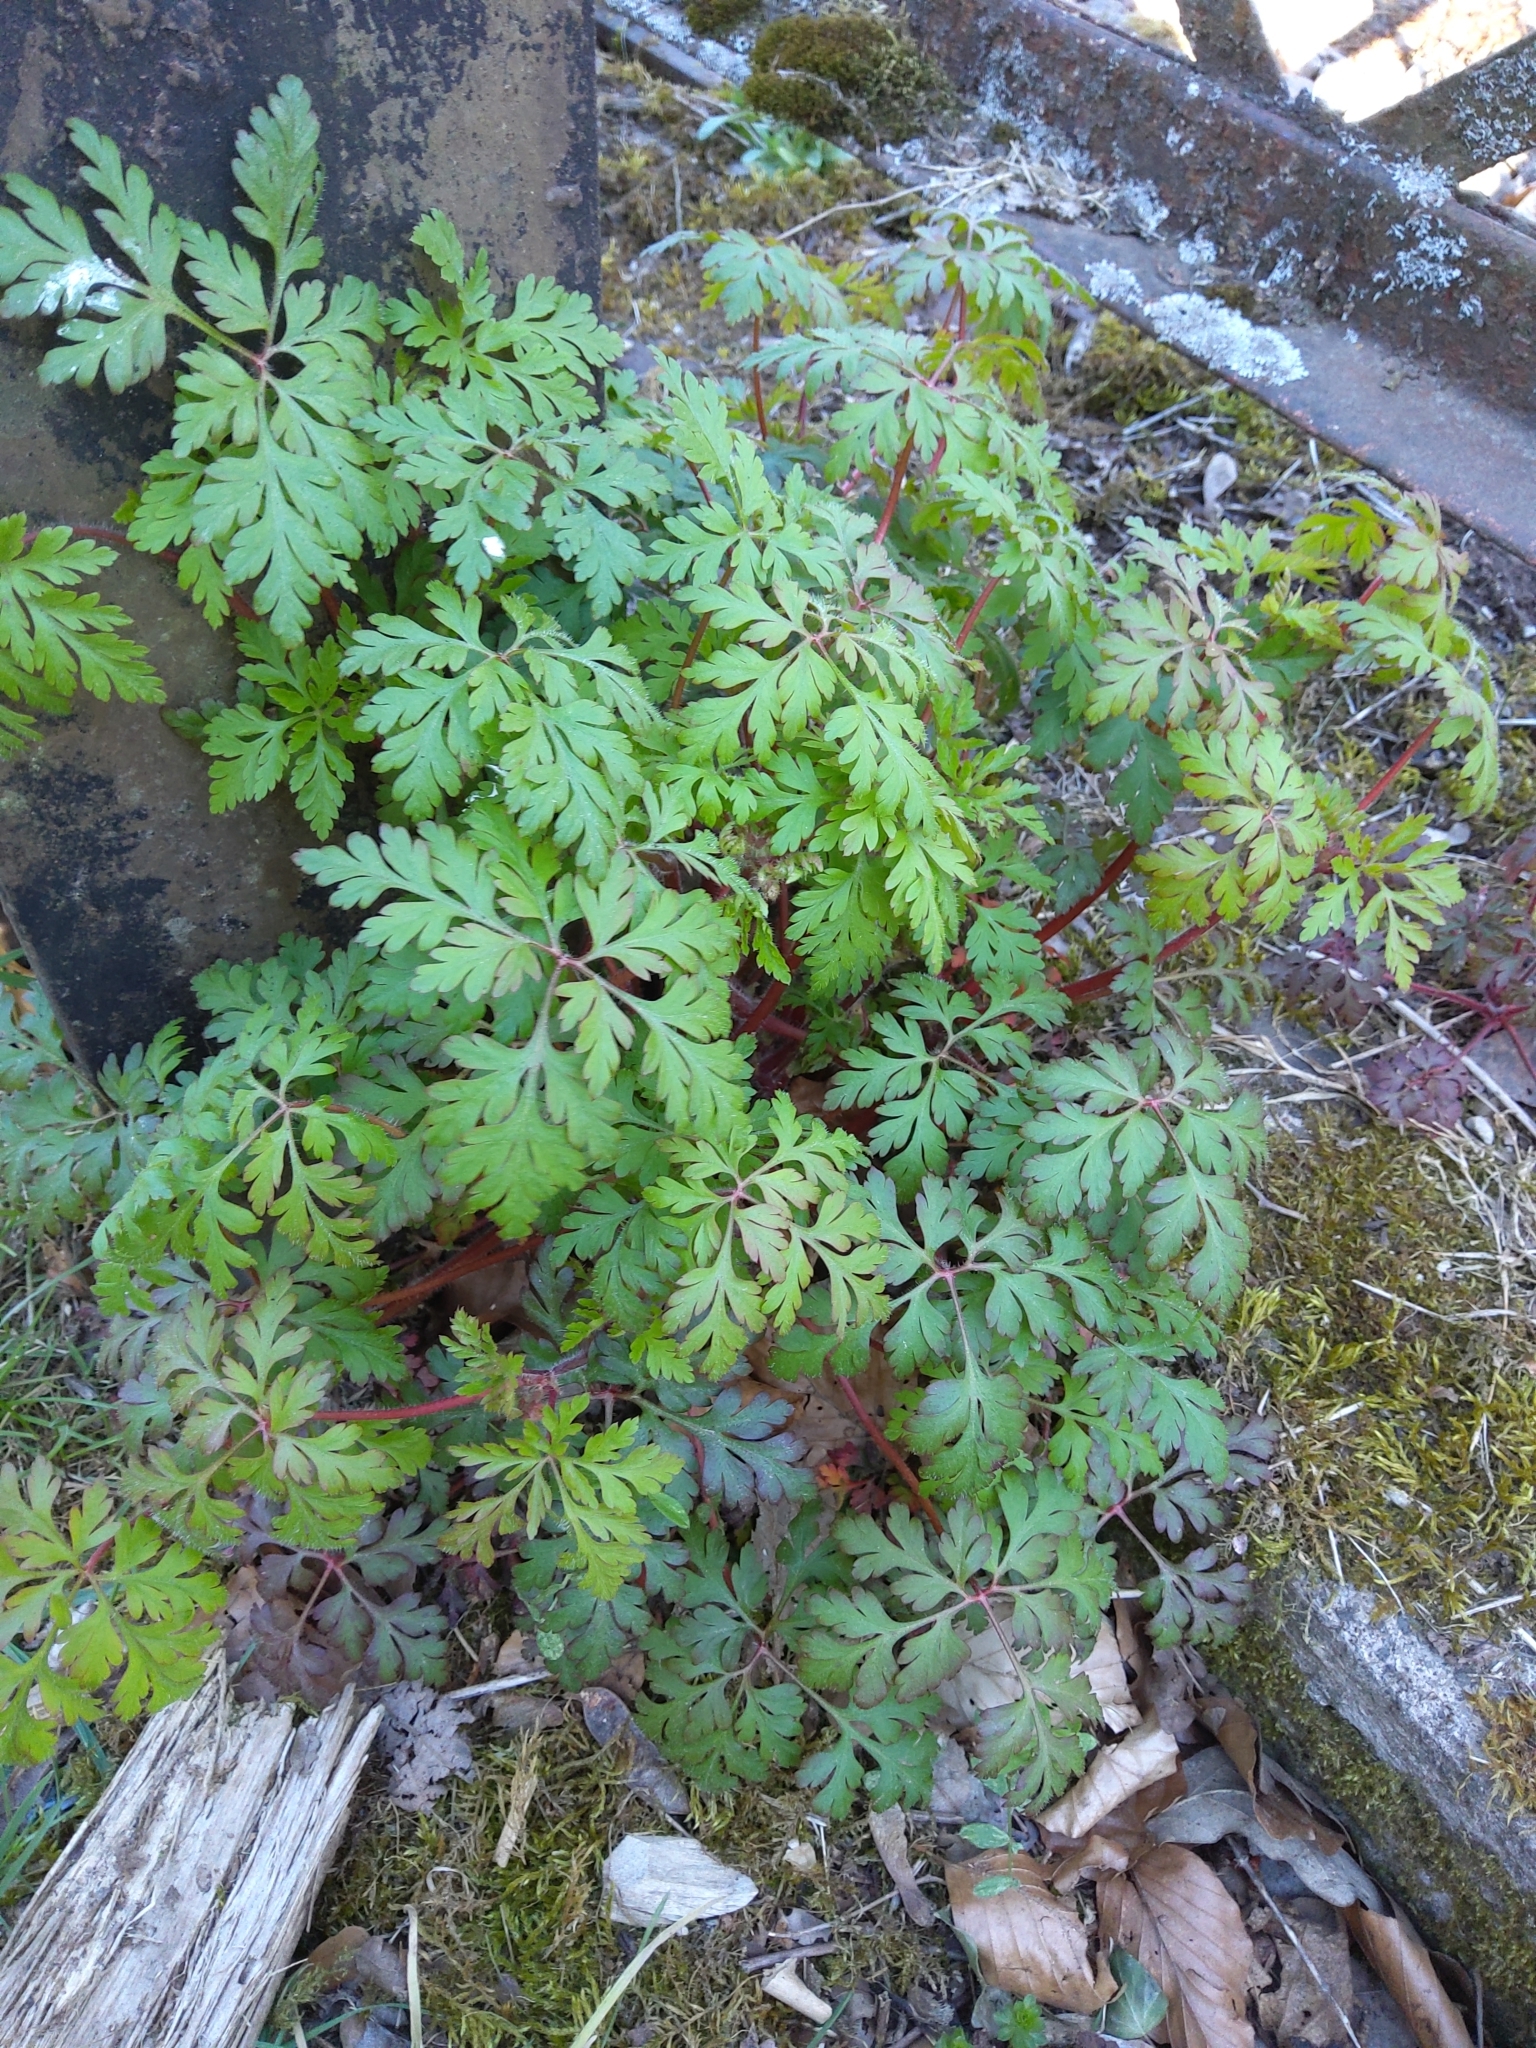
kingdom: Plantae
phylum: Tracheophyta
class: Magnoliopsida
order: Geraniales
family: Geraniaceae
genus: Geranium
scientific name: Geranium robertianum
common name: Herb-robert
